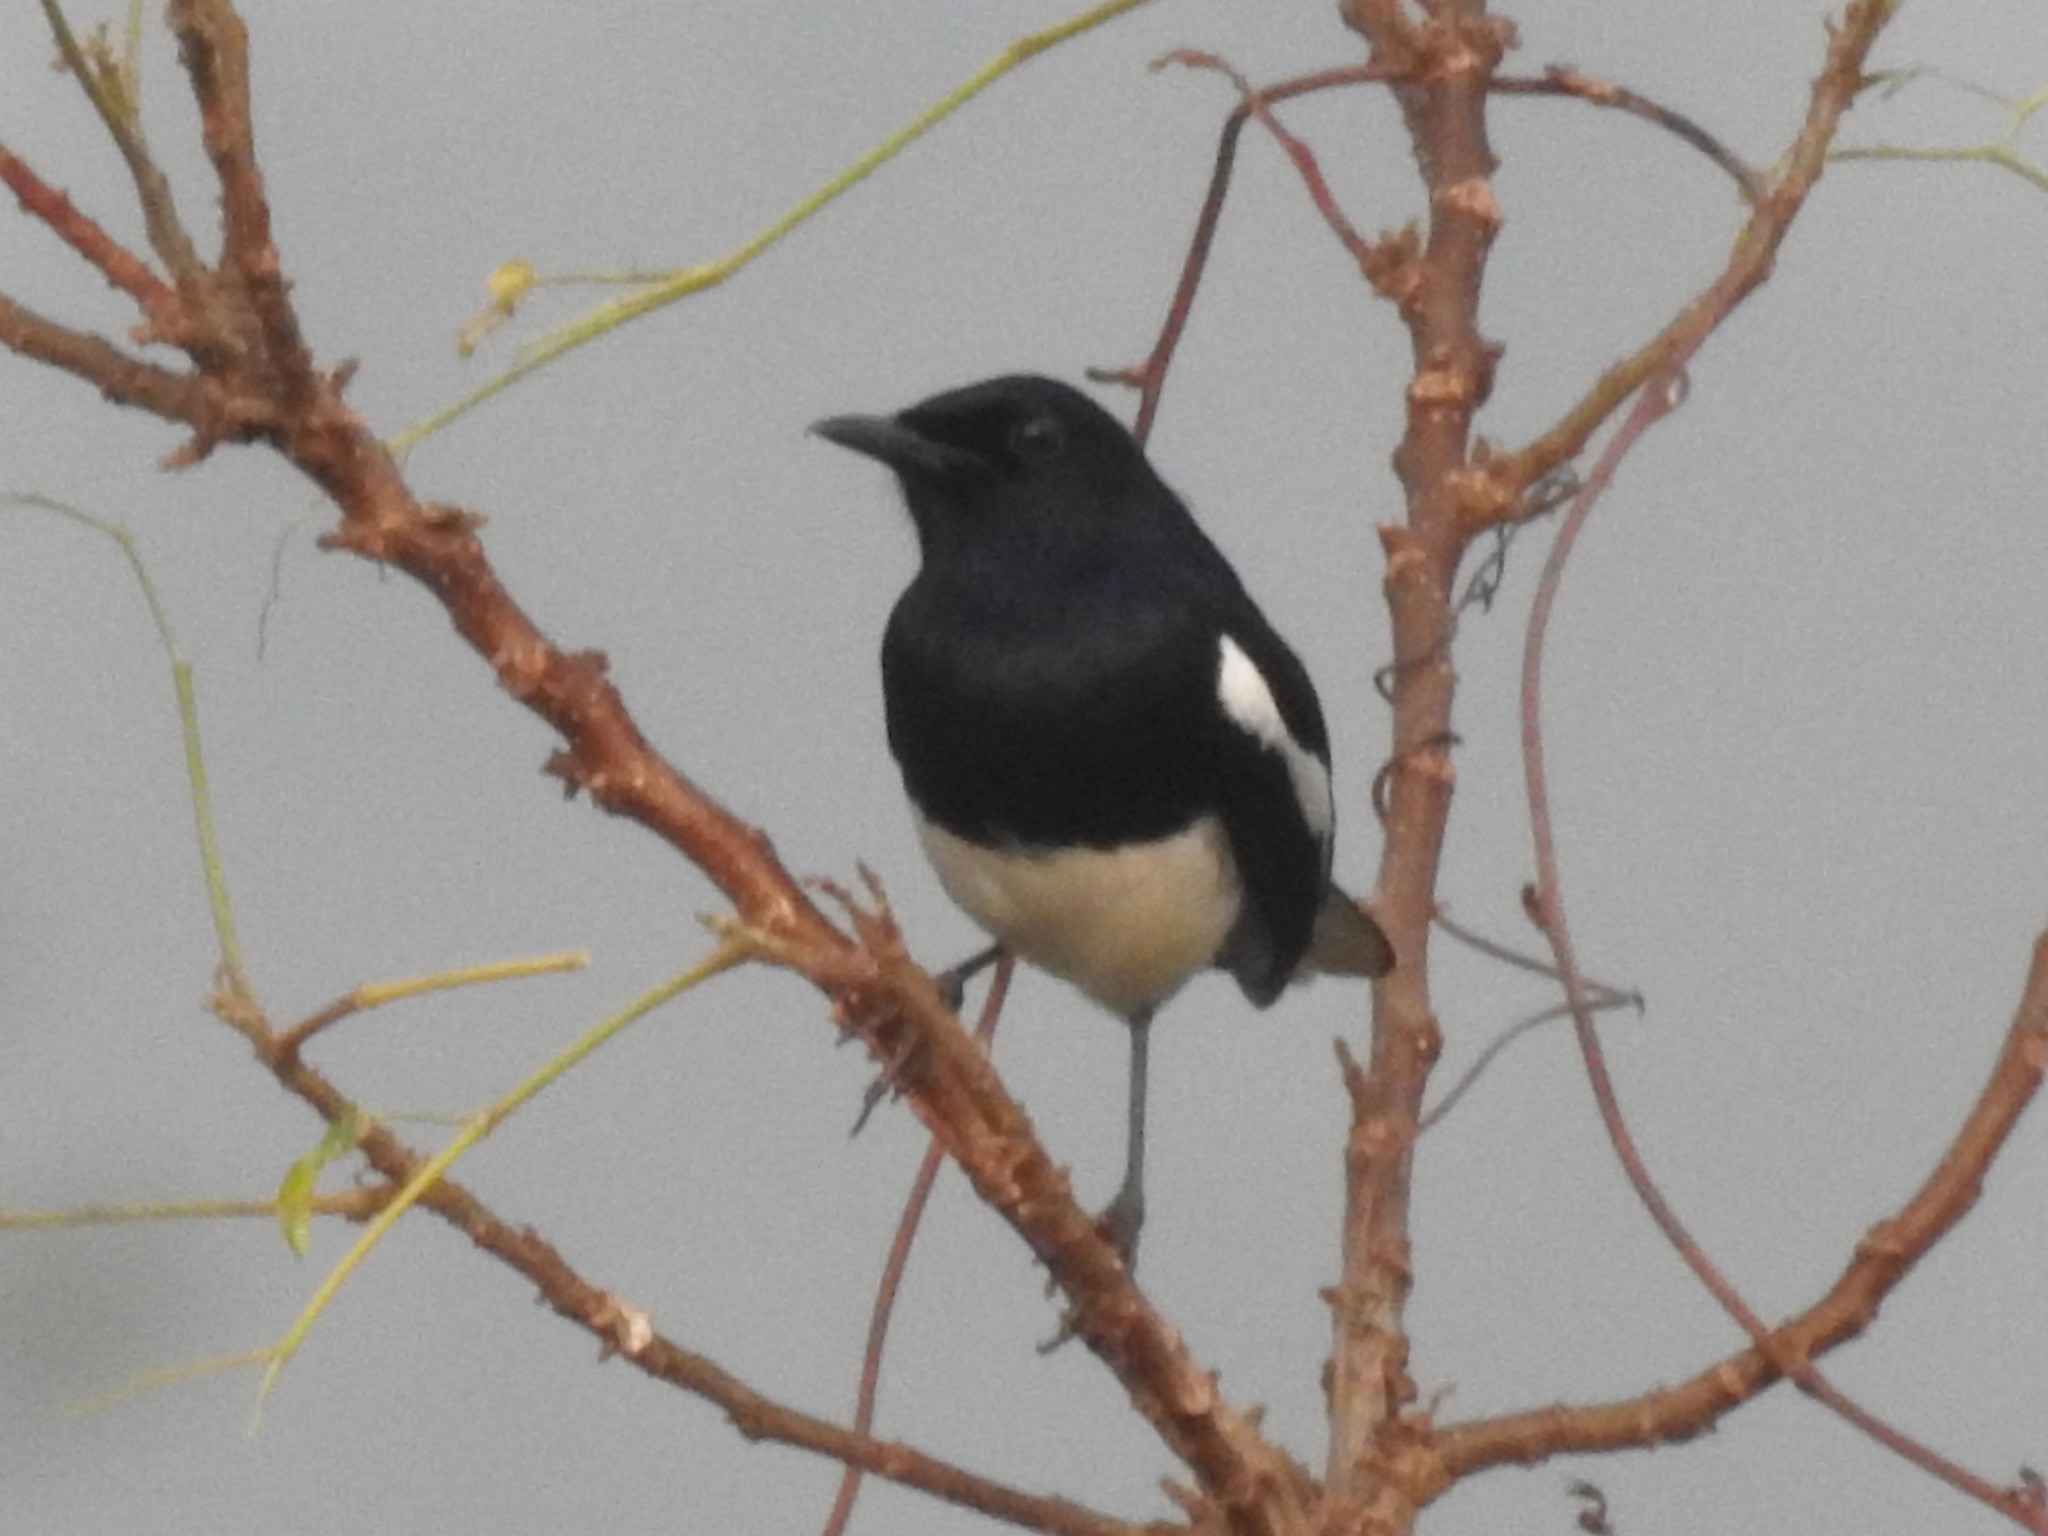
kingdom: Animalia
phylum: Chordata
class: Aves
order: Passeriformes
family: Muscicapidae
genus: Copsychus
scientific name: Copsychus saularis
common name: Oriental magpie-robin
